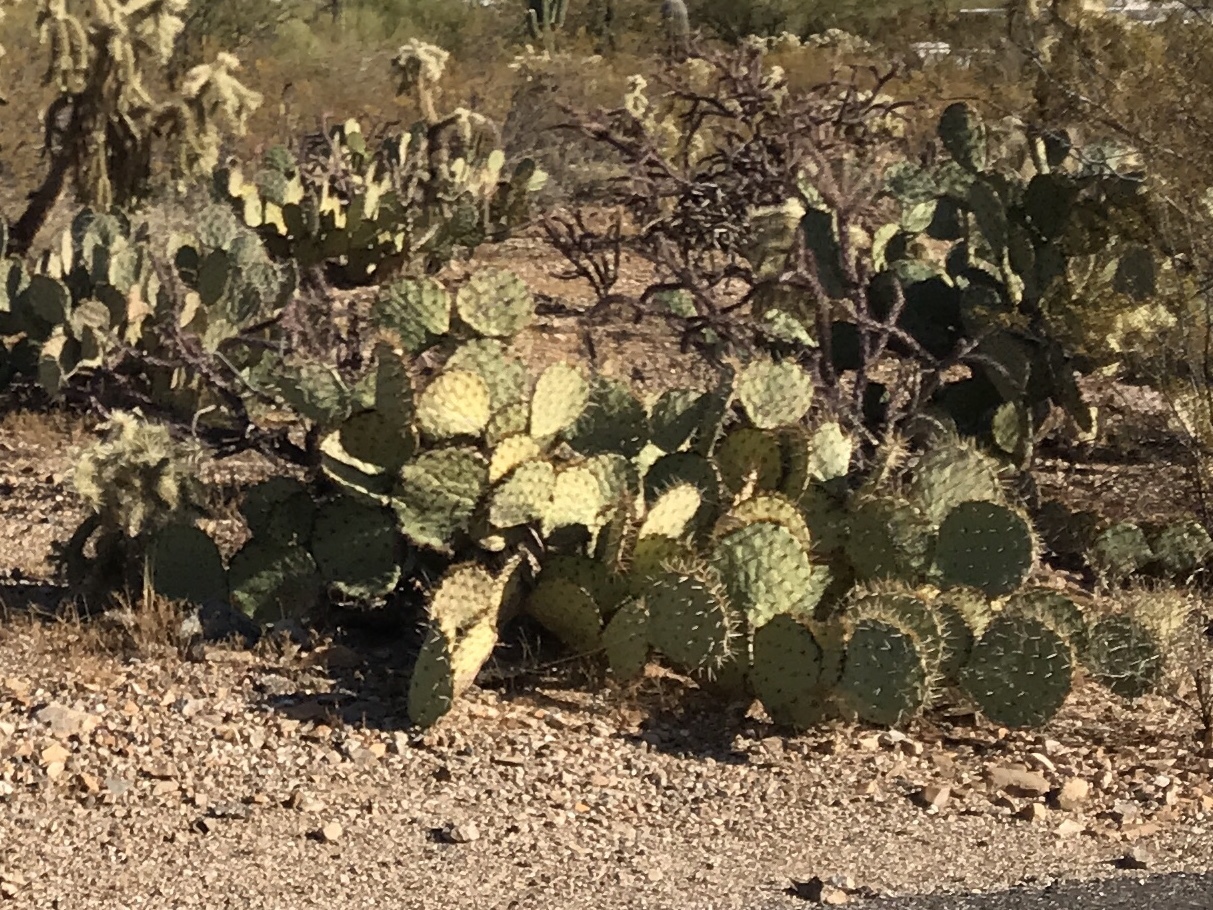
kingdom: Plantae
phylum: Tracheophyta
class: Magnoliopsida
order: Caryophyllales
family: Cactaceae
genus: Opuntia
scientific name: Opuntia engelmannii
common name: Cactus-apple
